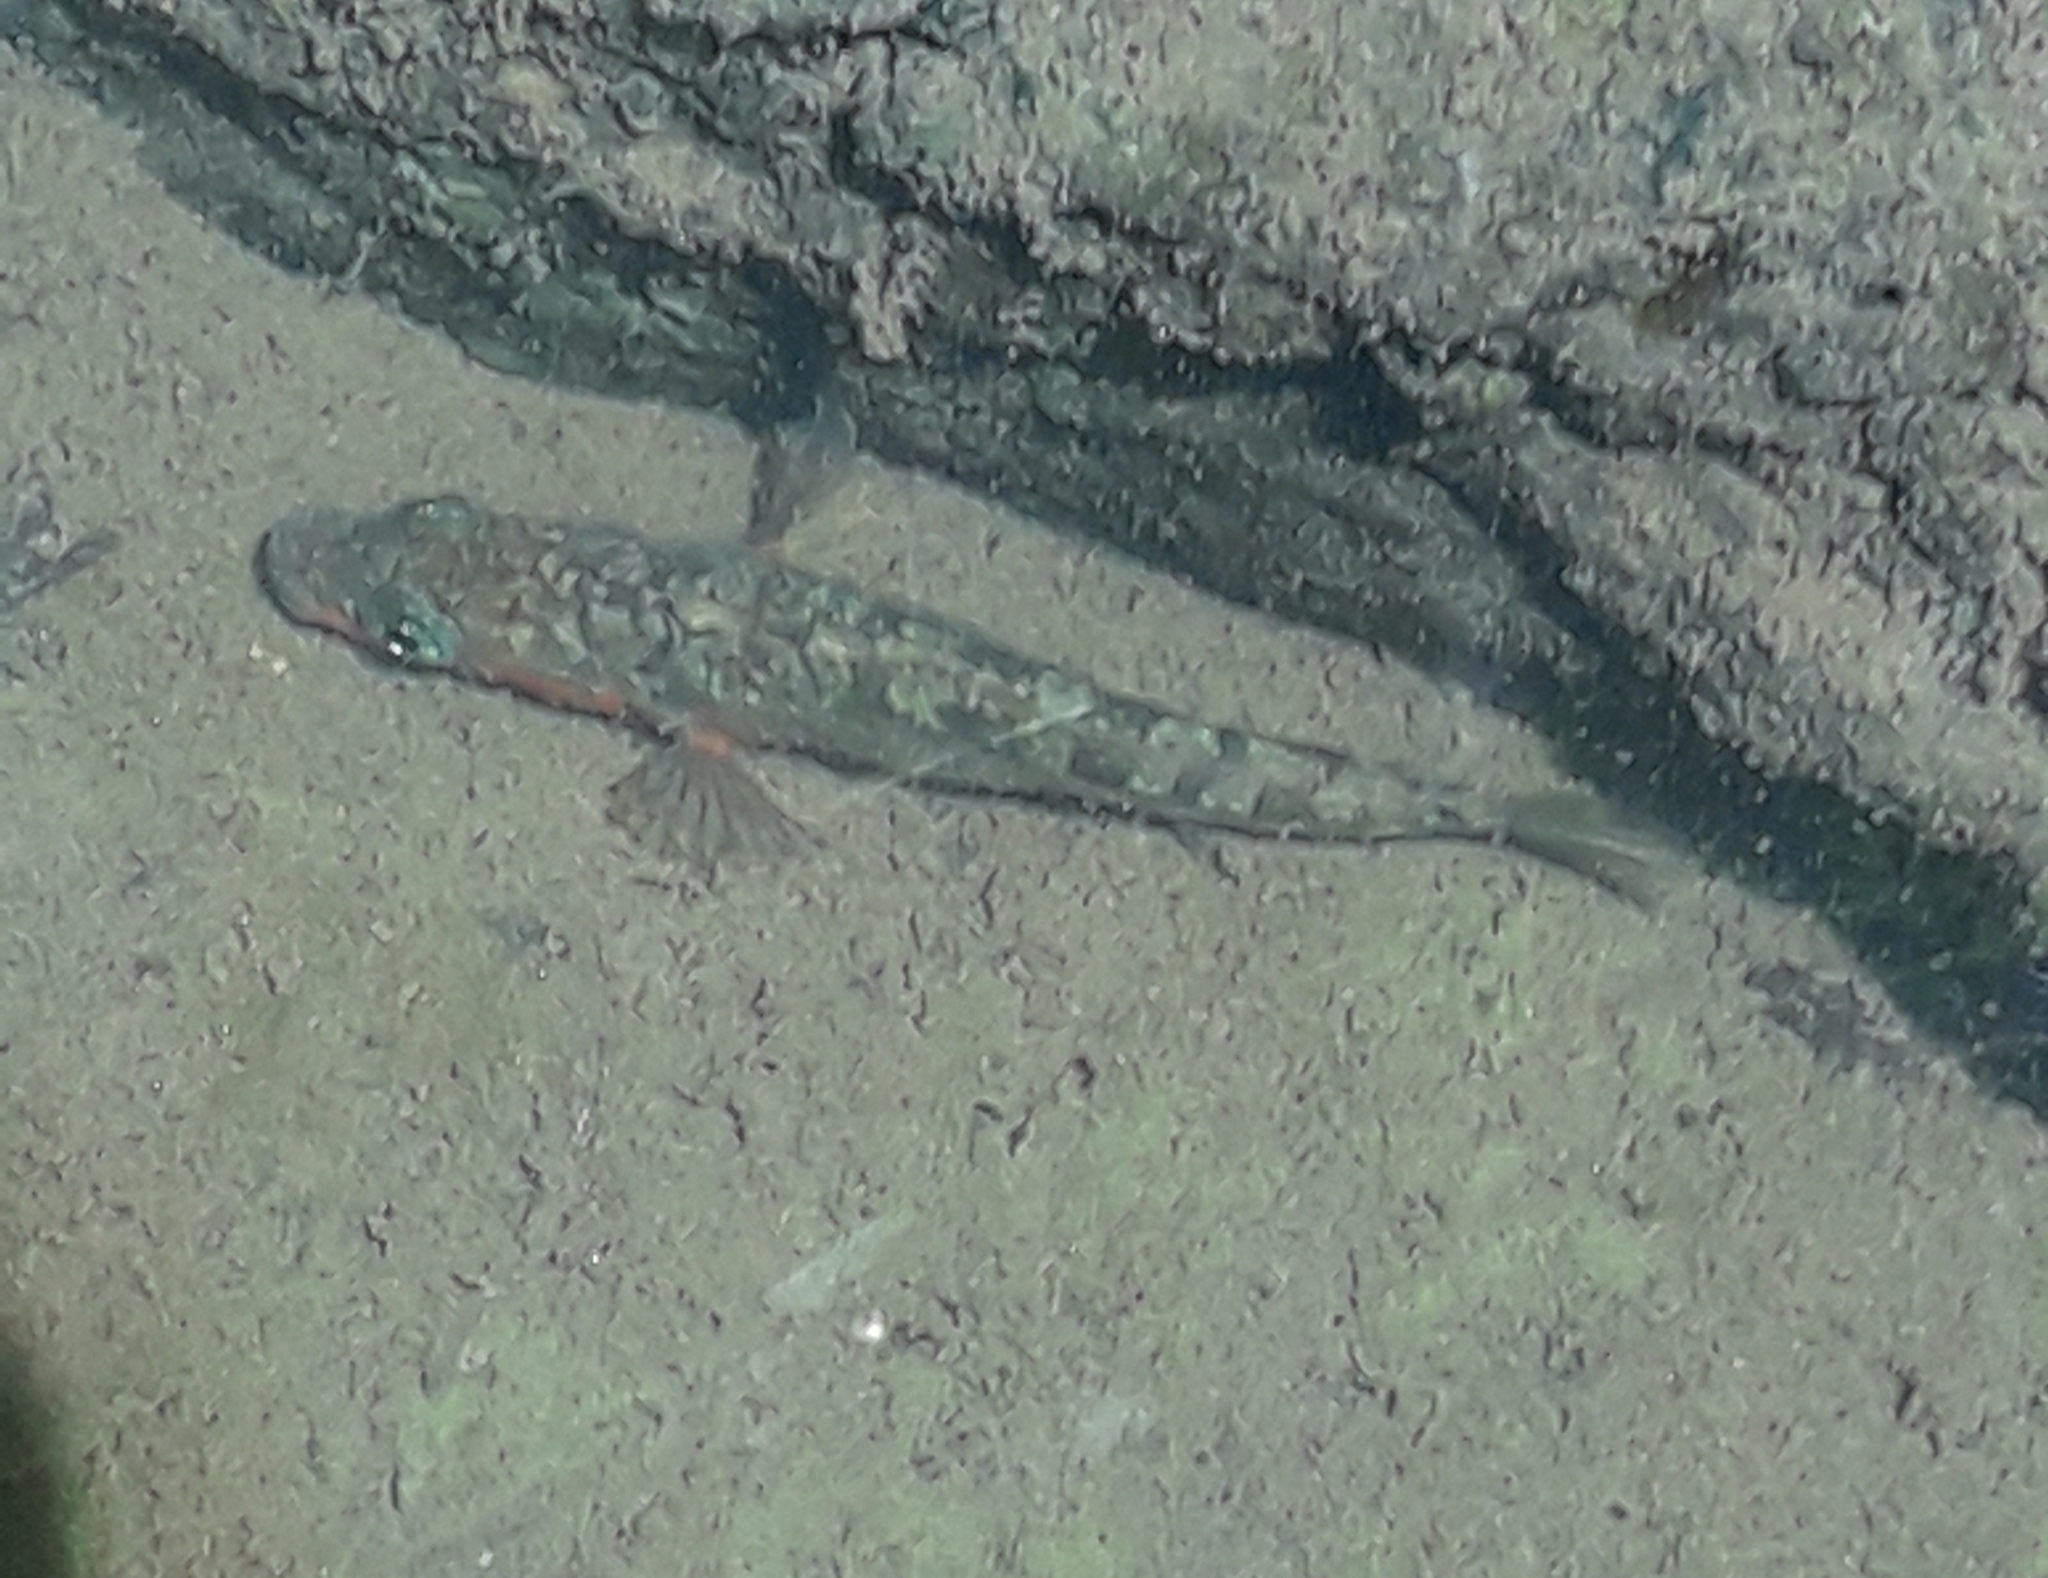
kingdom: Animalia
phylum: Chordata
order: Gasterosteiformes
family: Gasterosteidae
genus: Gasterosteus
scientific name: Gasterosteus aculeatus
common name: Three-spined stickleback
